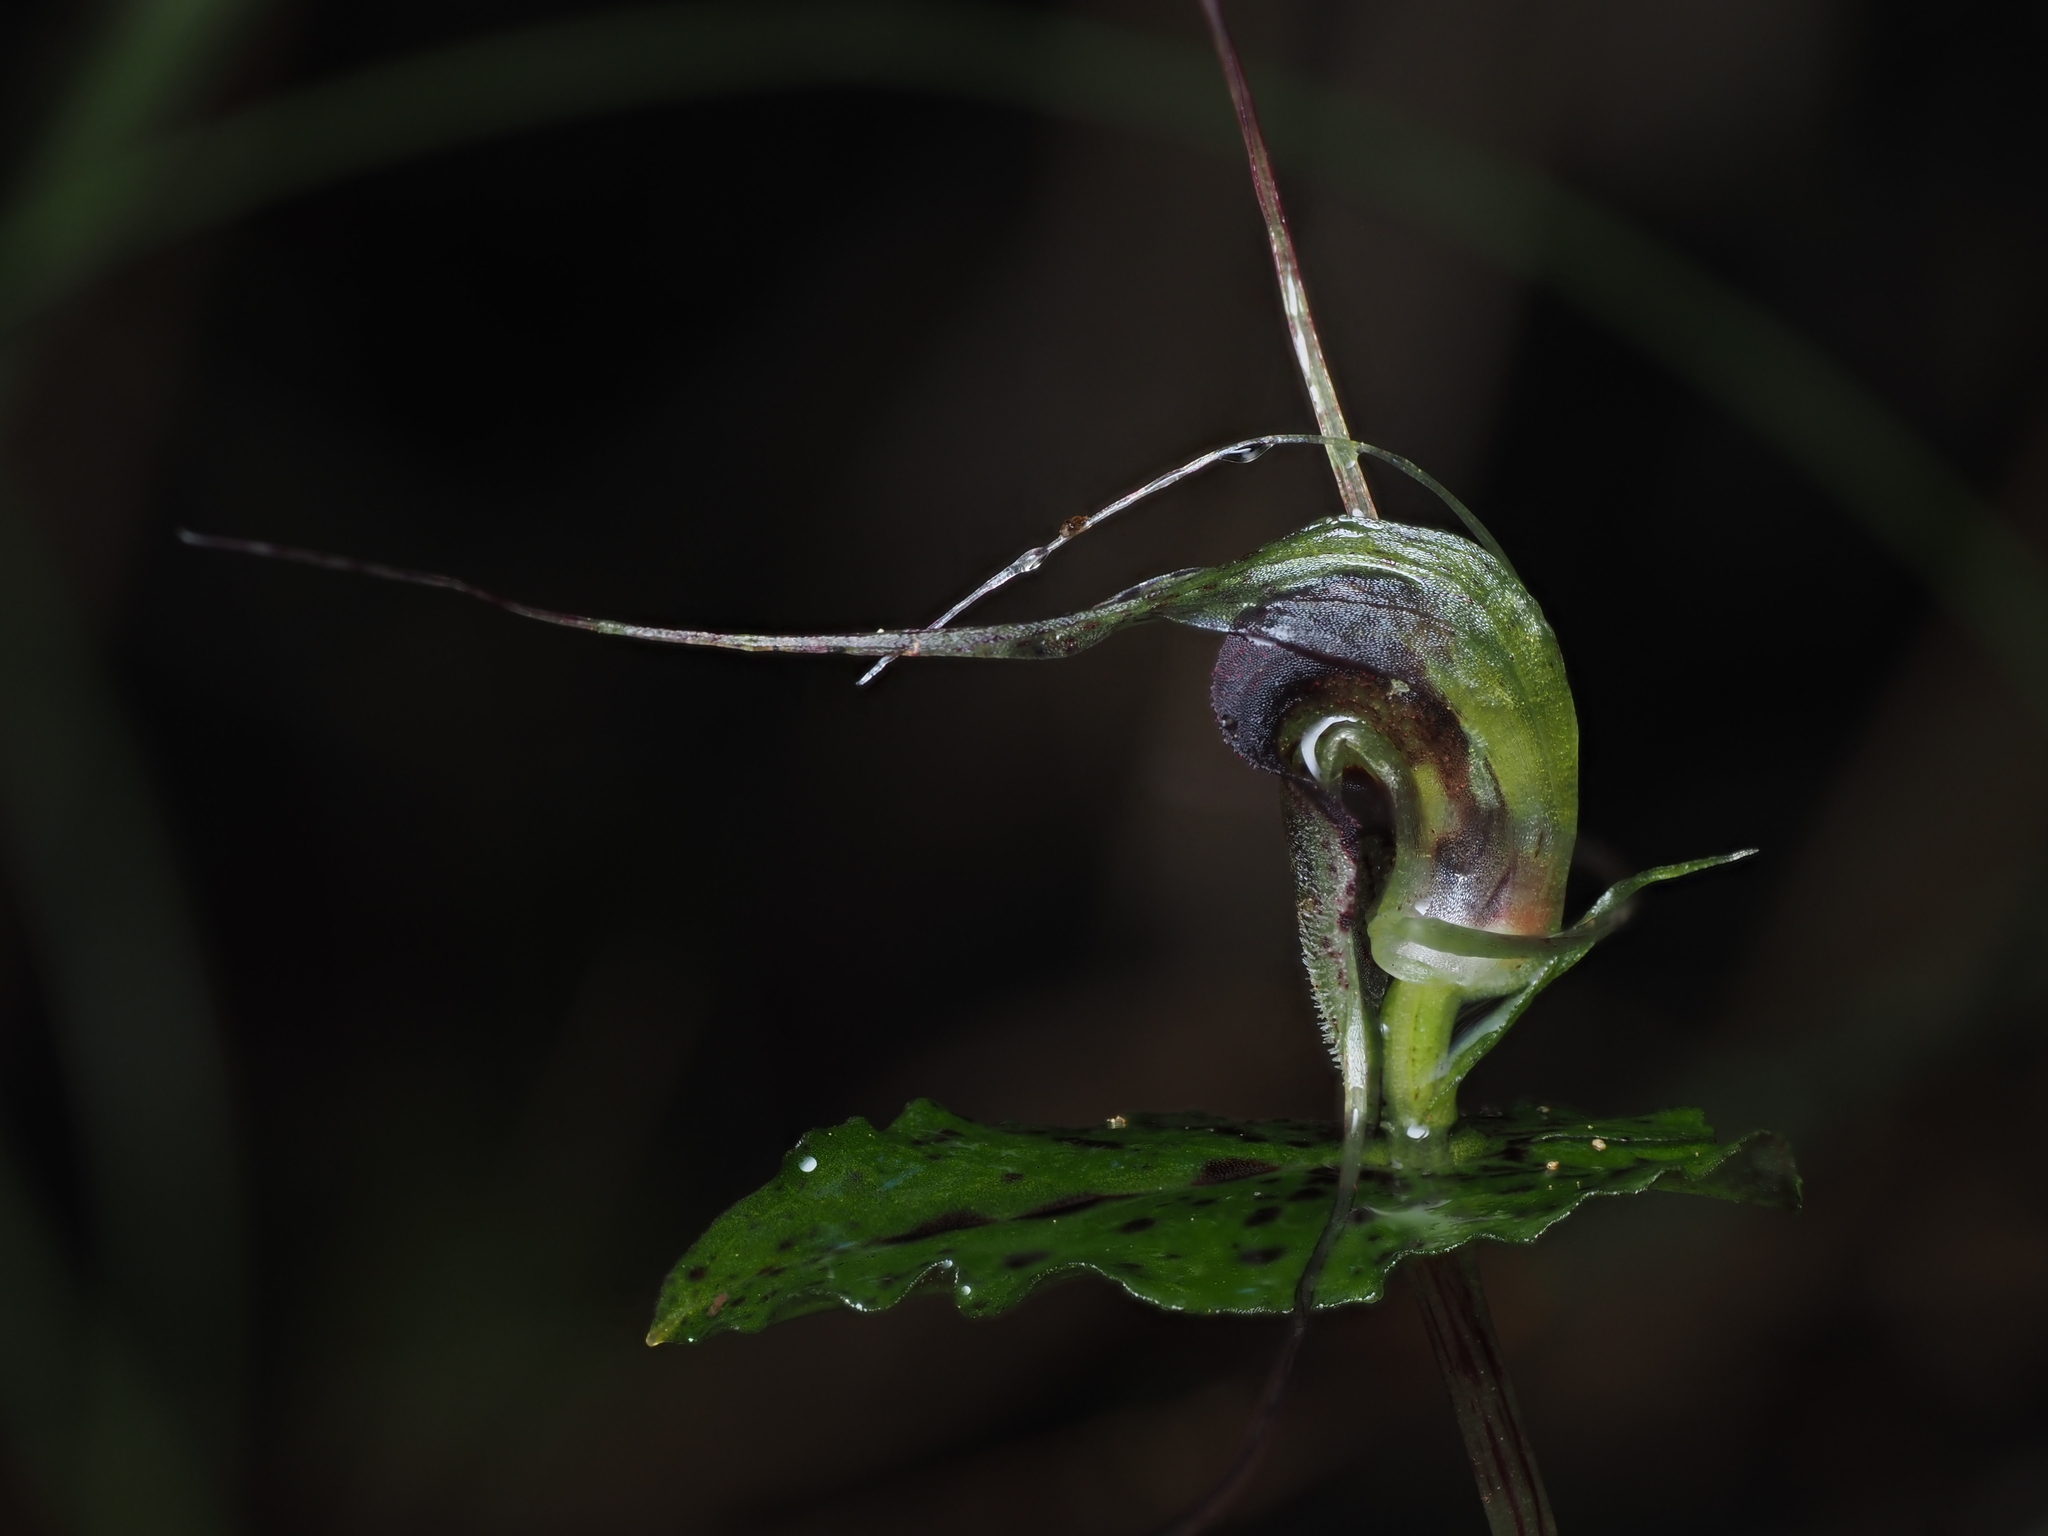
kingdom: Plantae
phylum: Tracheophyta
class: Liliopsida
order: Asparagales
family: Orchidaceae
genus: Corybas
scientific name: Corybas acuminatus
